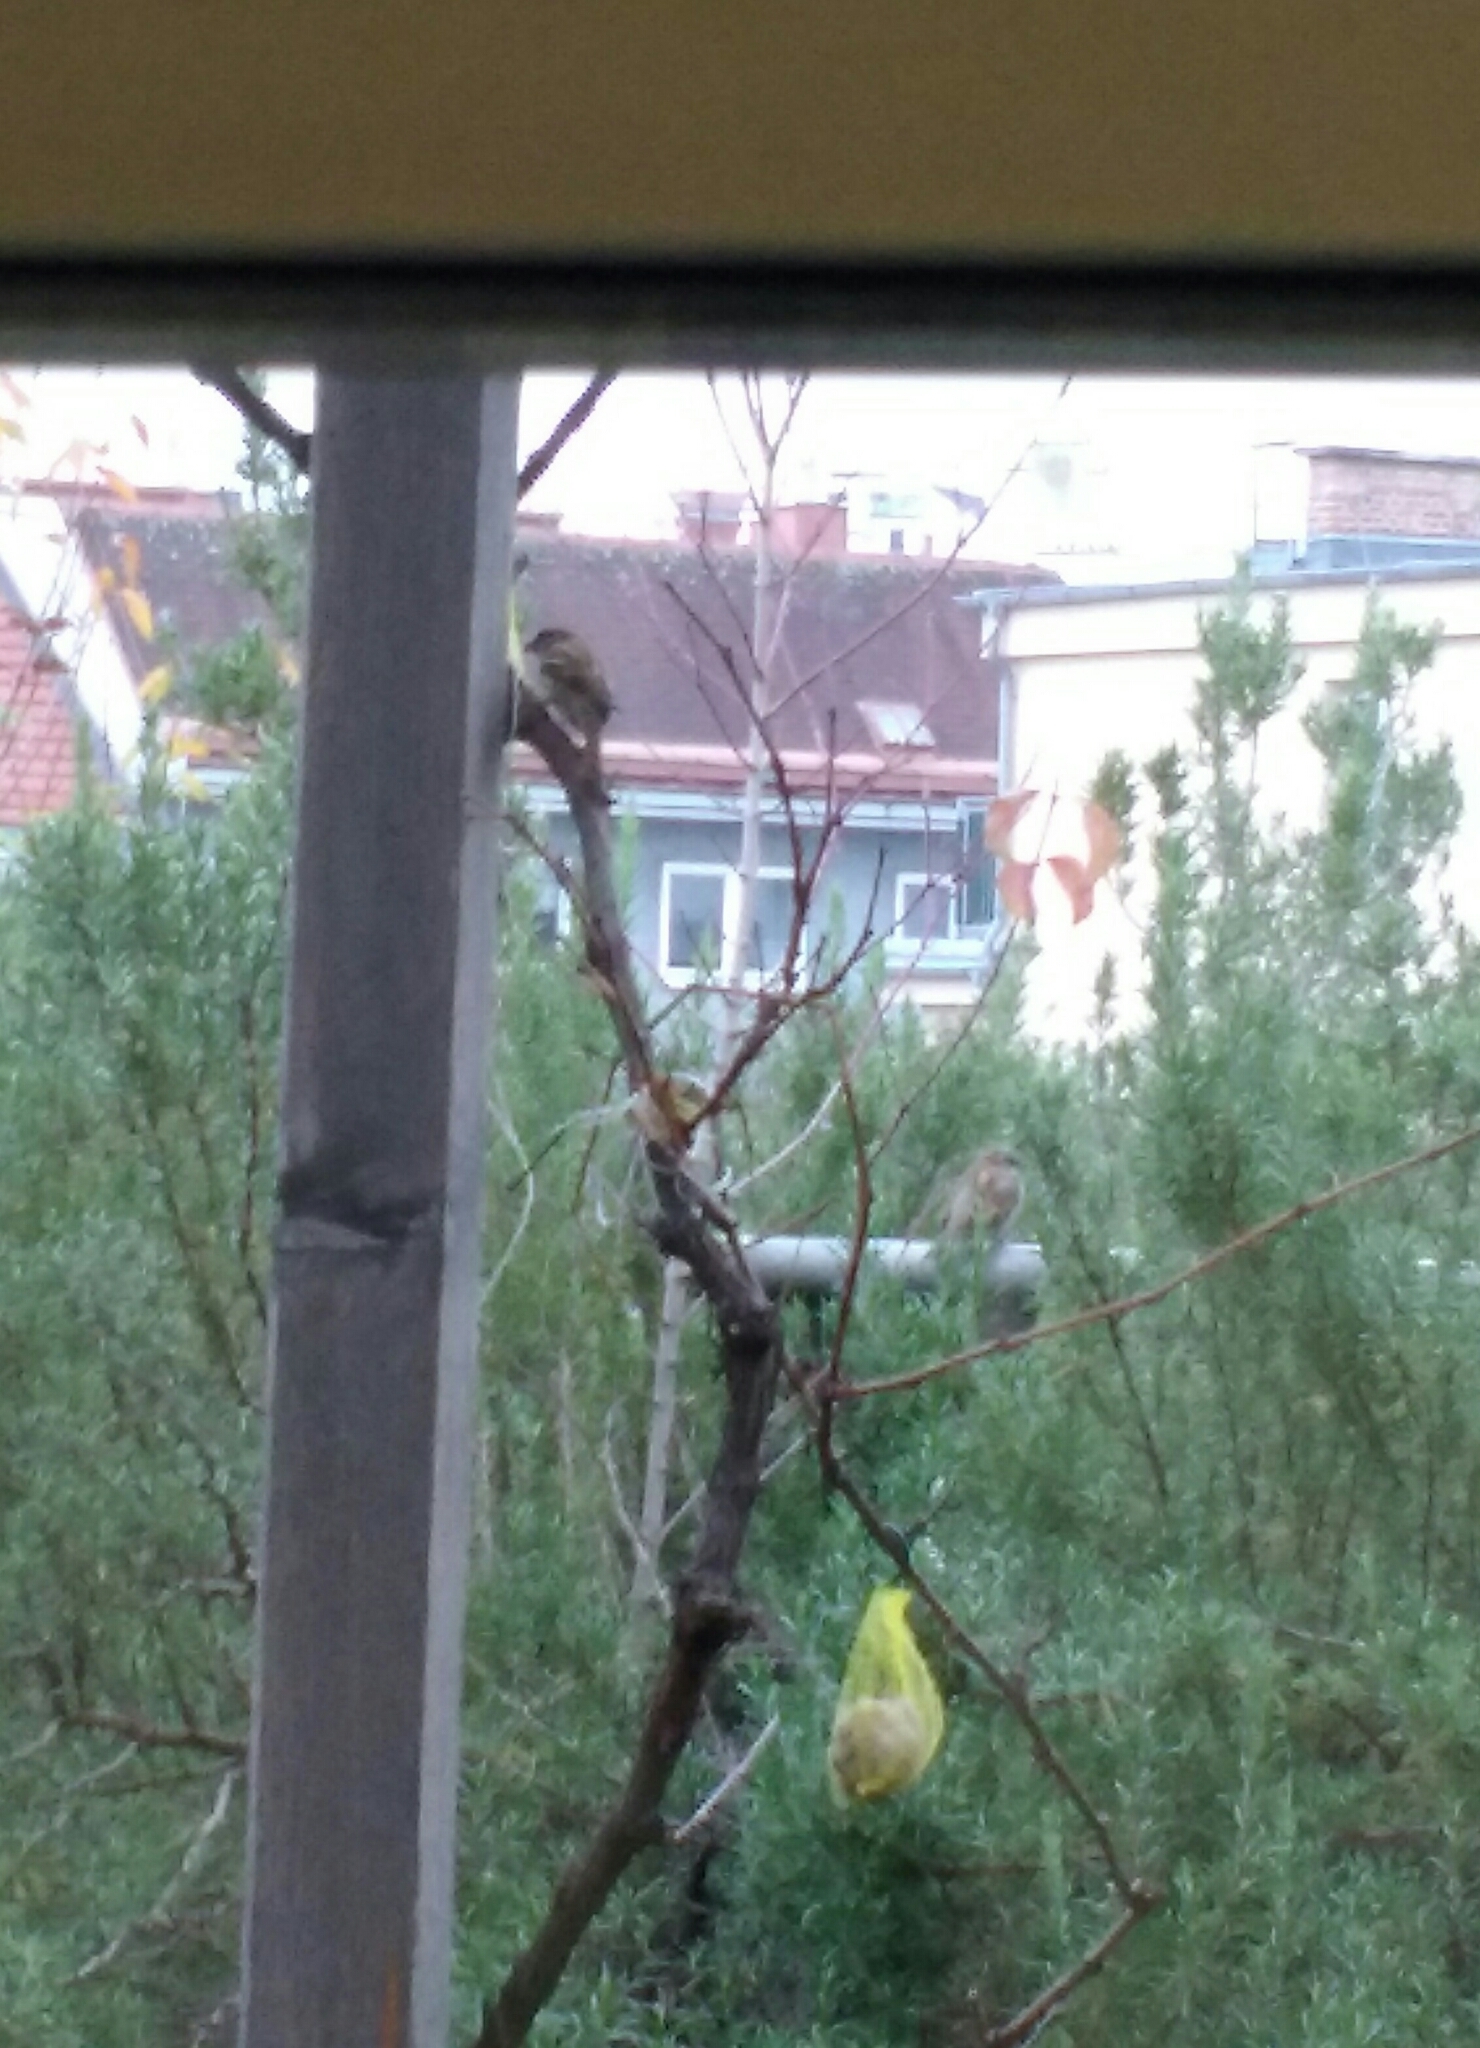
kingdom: Animalia
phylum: Chordata
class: Aves
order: Passeriformes
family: Passeridae
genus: Passer
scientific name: Passer montanus
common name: Eurasian tree sparrow
